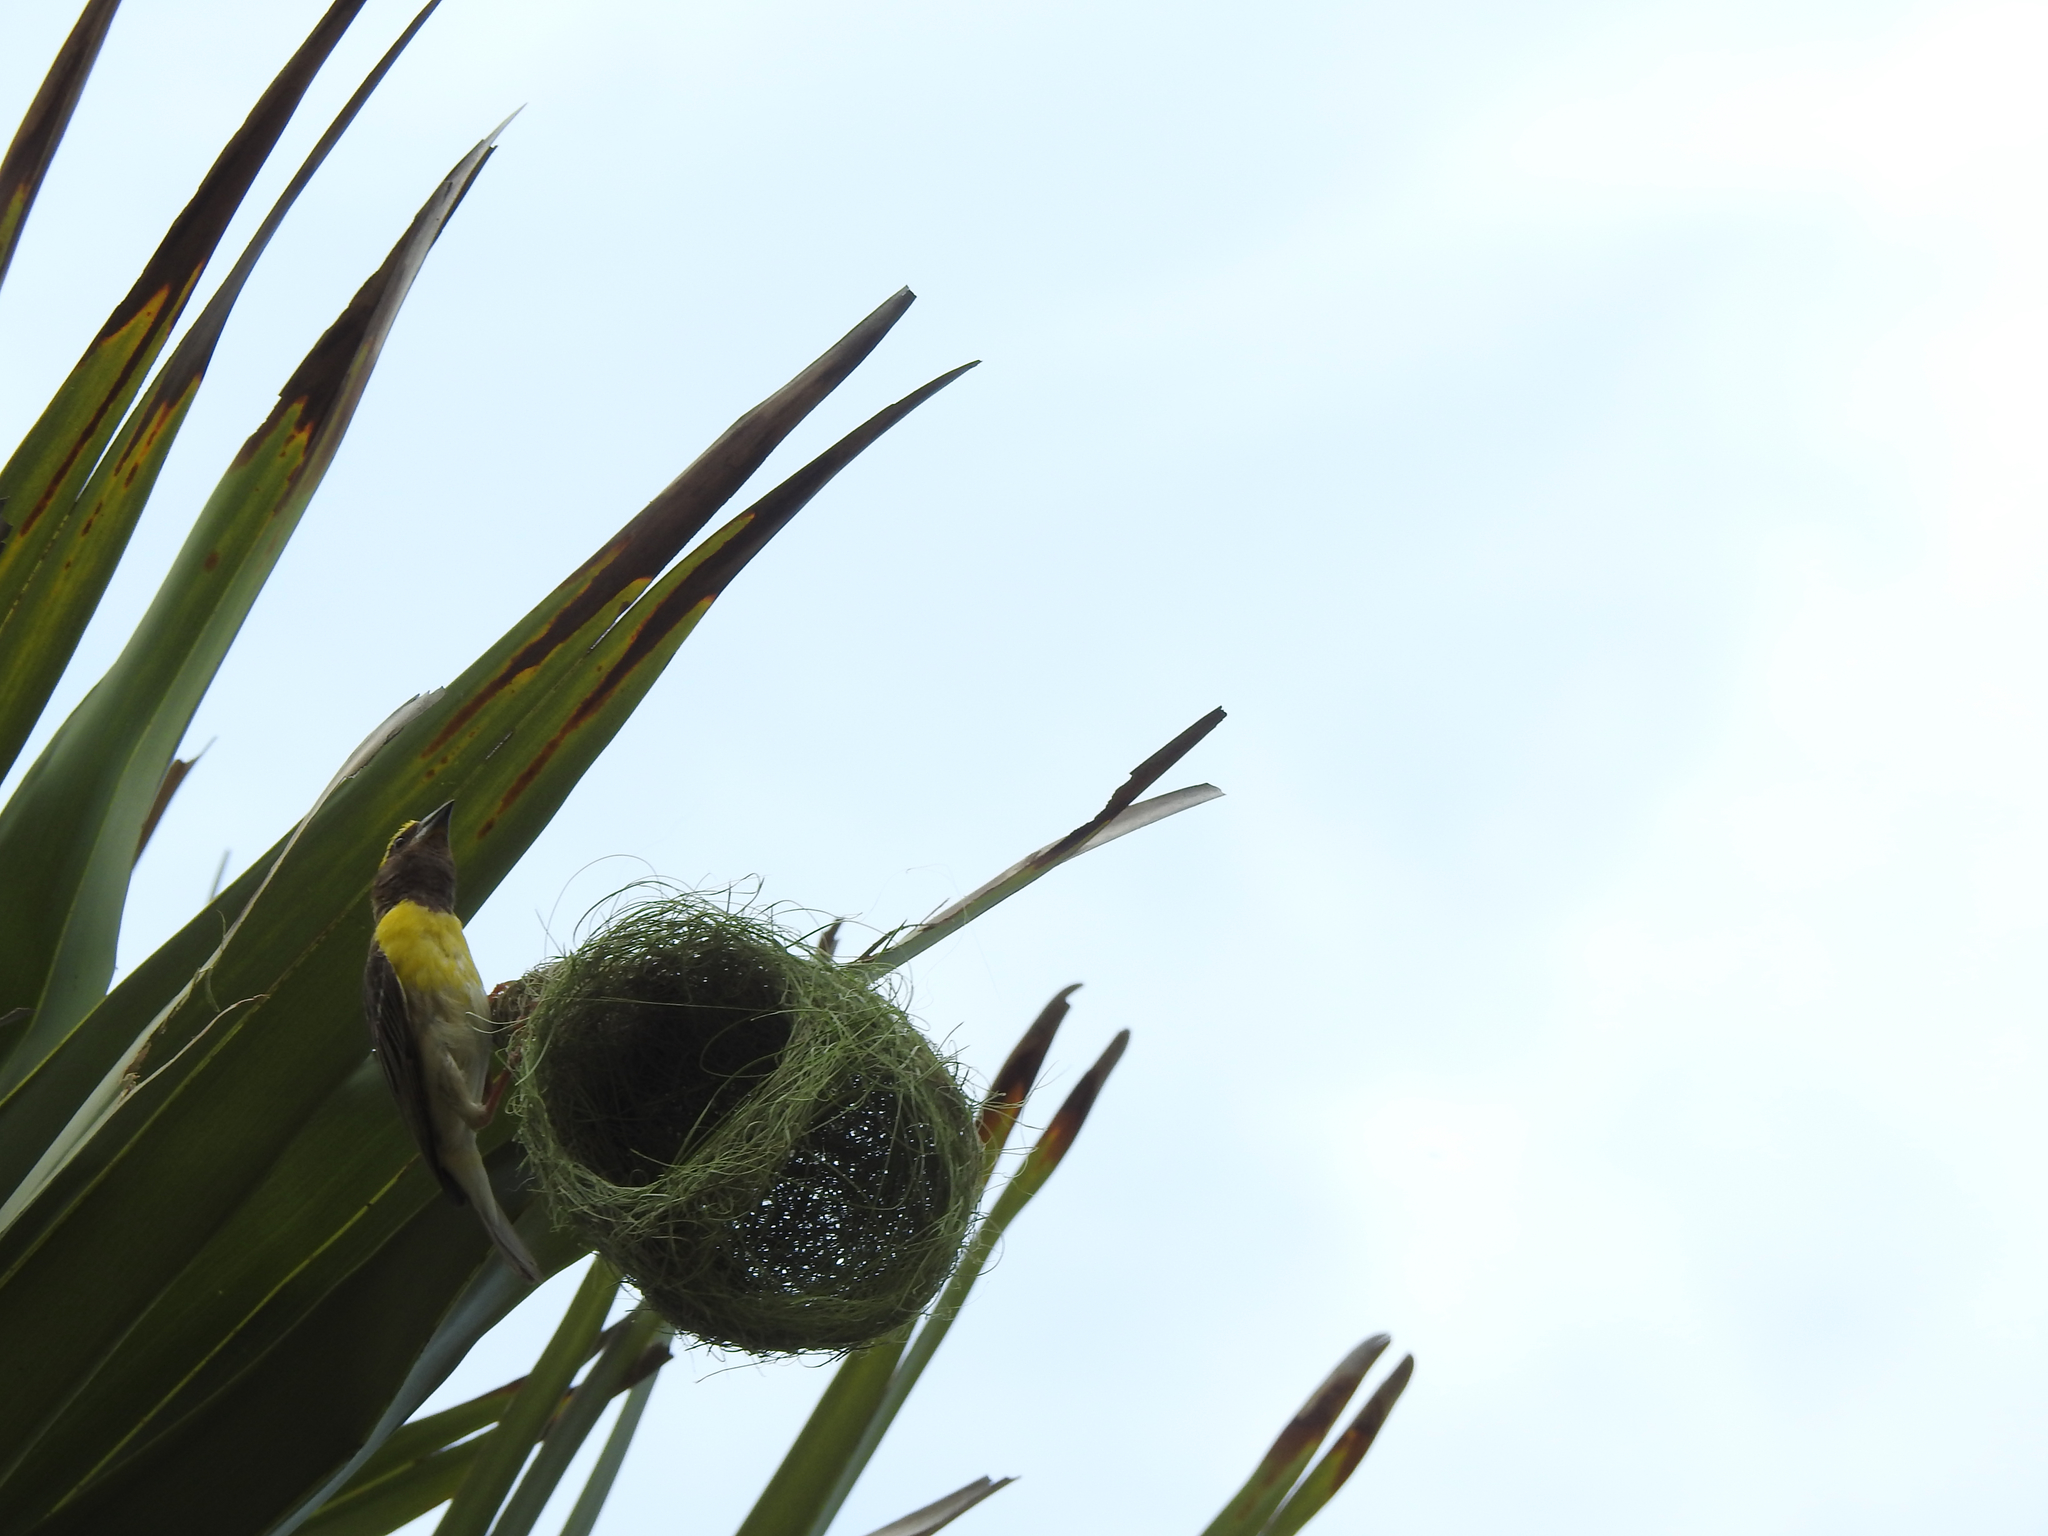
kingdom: Animalia
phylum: Chordata
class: Aves
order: Passeriformes
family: Ploceidae
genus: Ploceus
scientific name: Ploceus philippinus
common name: Baya weaver
